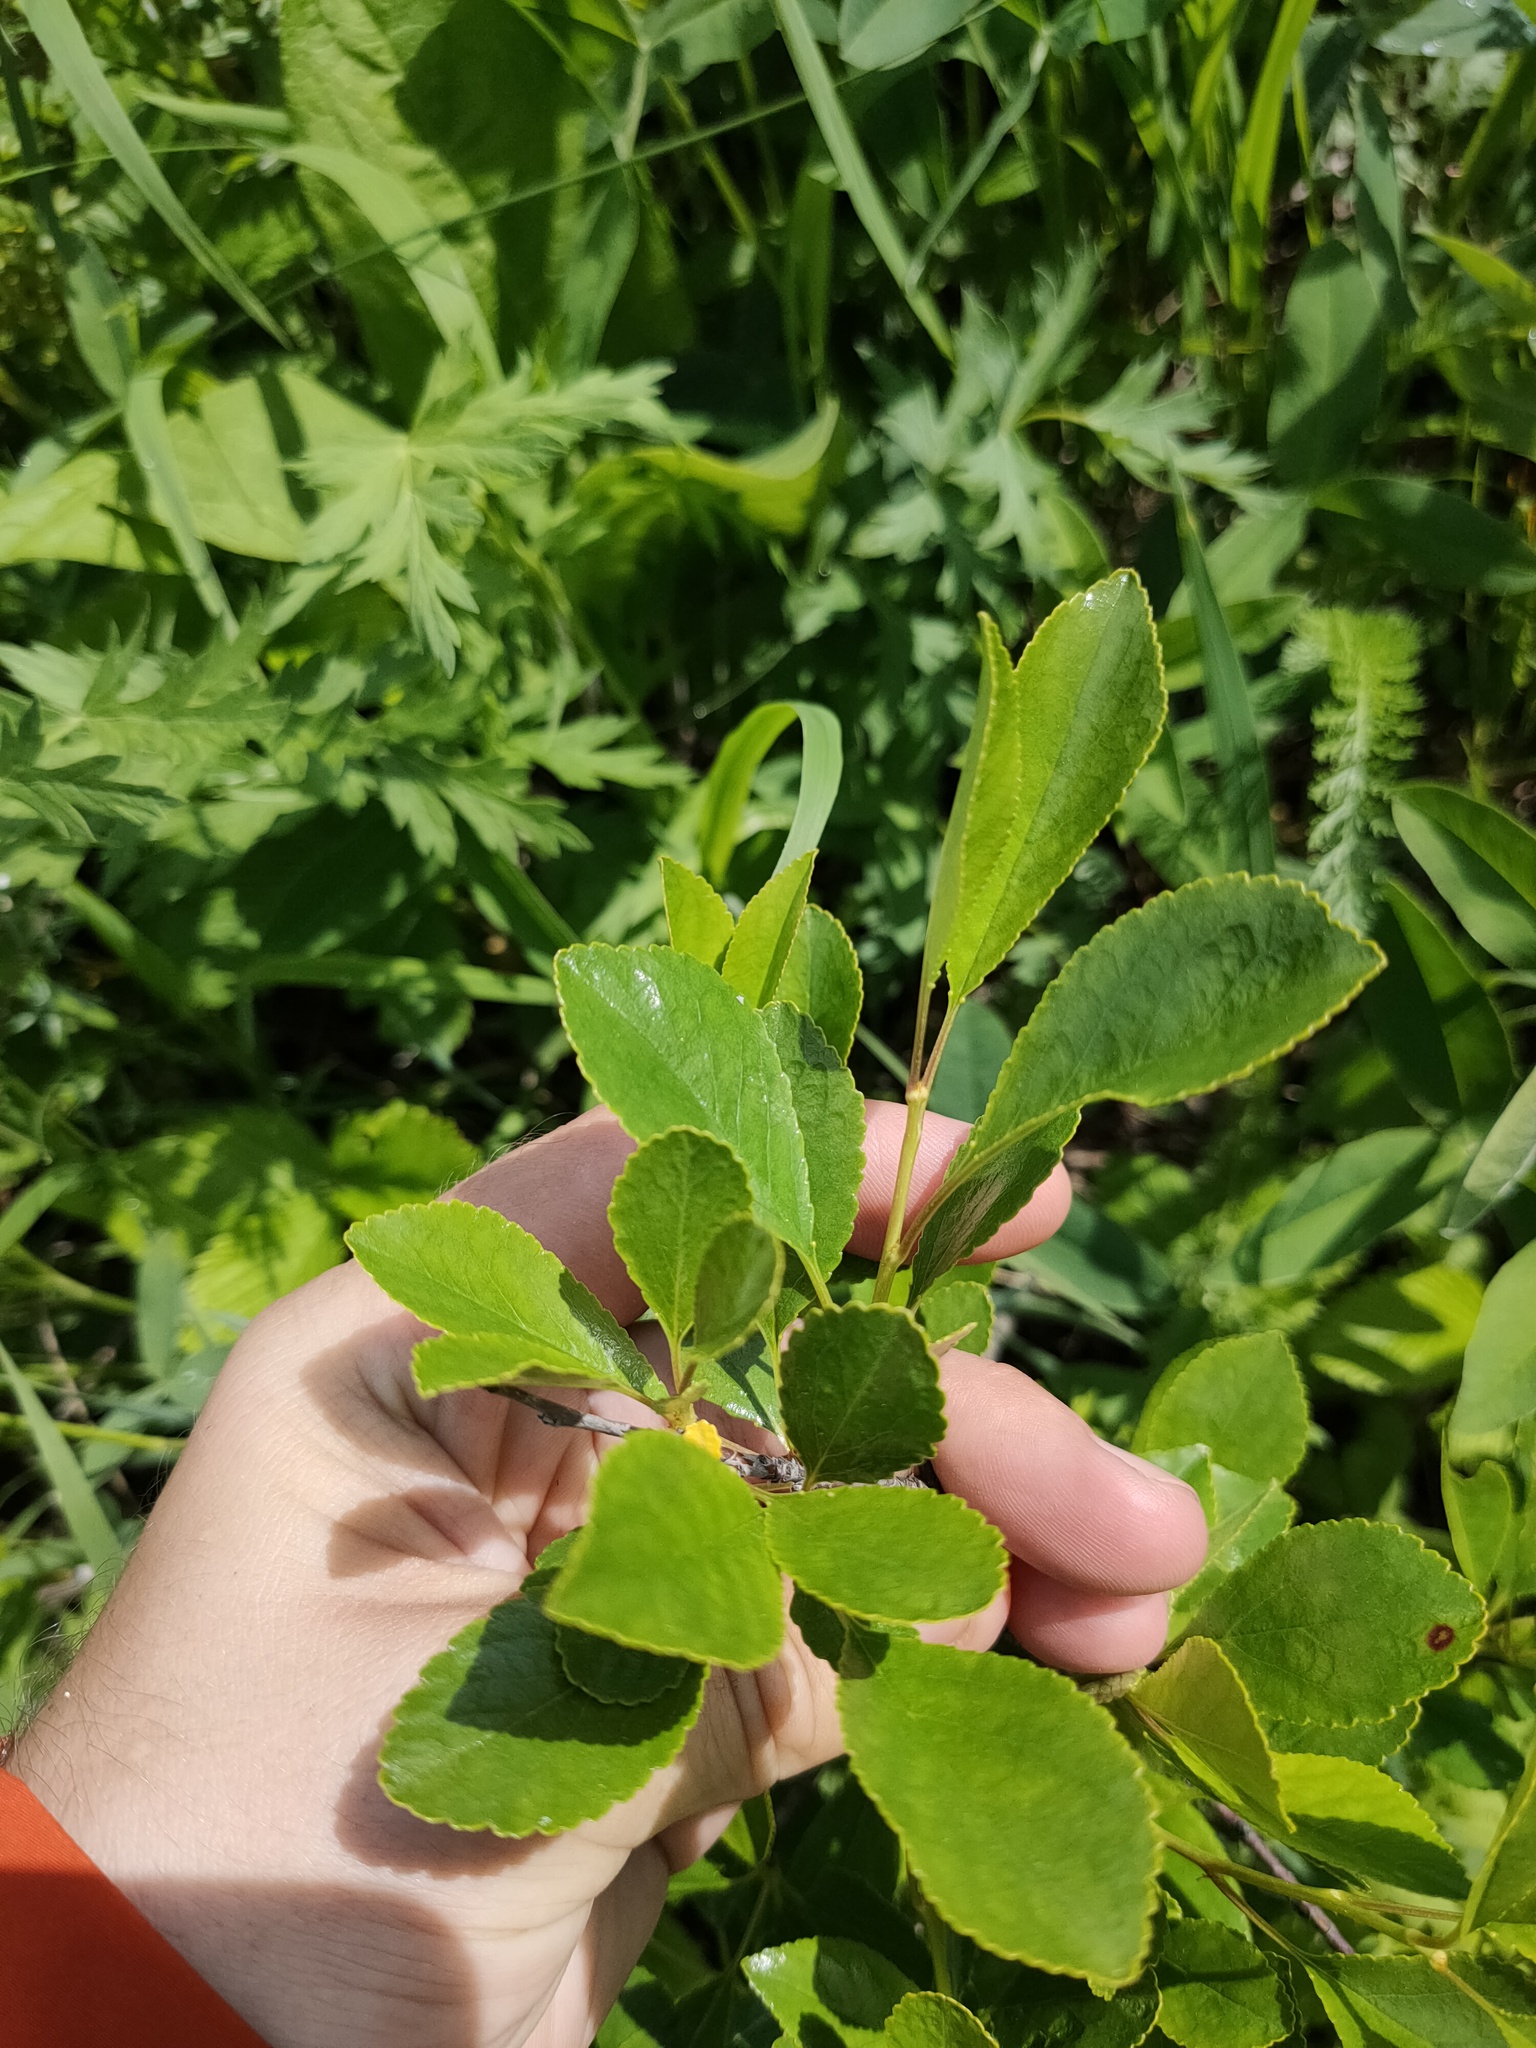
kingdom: Plantae
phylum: Tracheophyta
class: Magnoliopsida
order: Rosales
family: Rosaceae
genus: Prunus
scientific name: Prunus fruticosa
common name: European dwarf cherry
